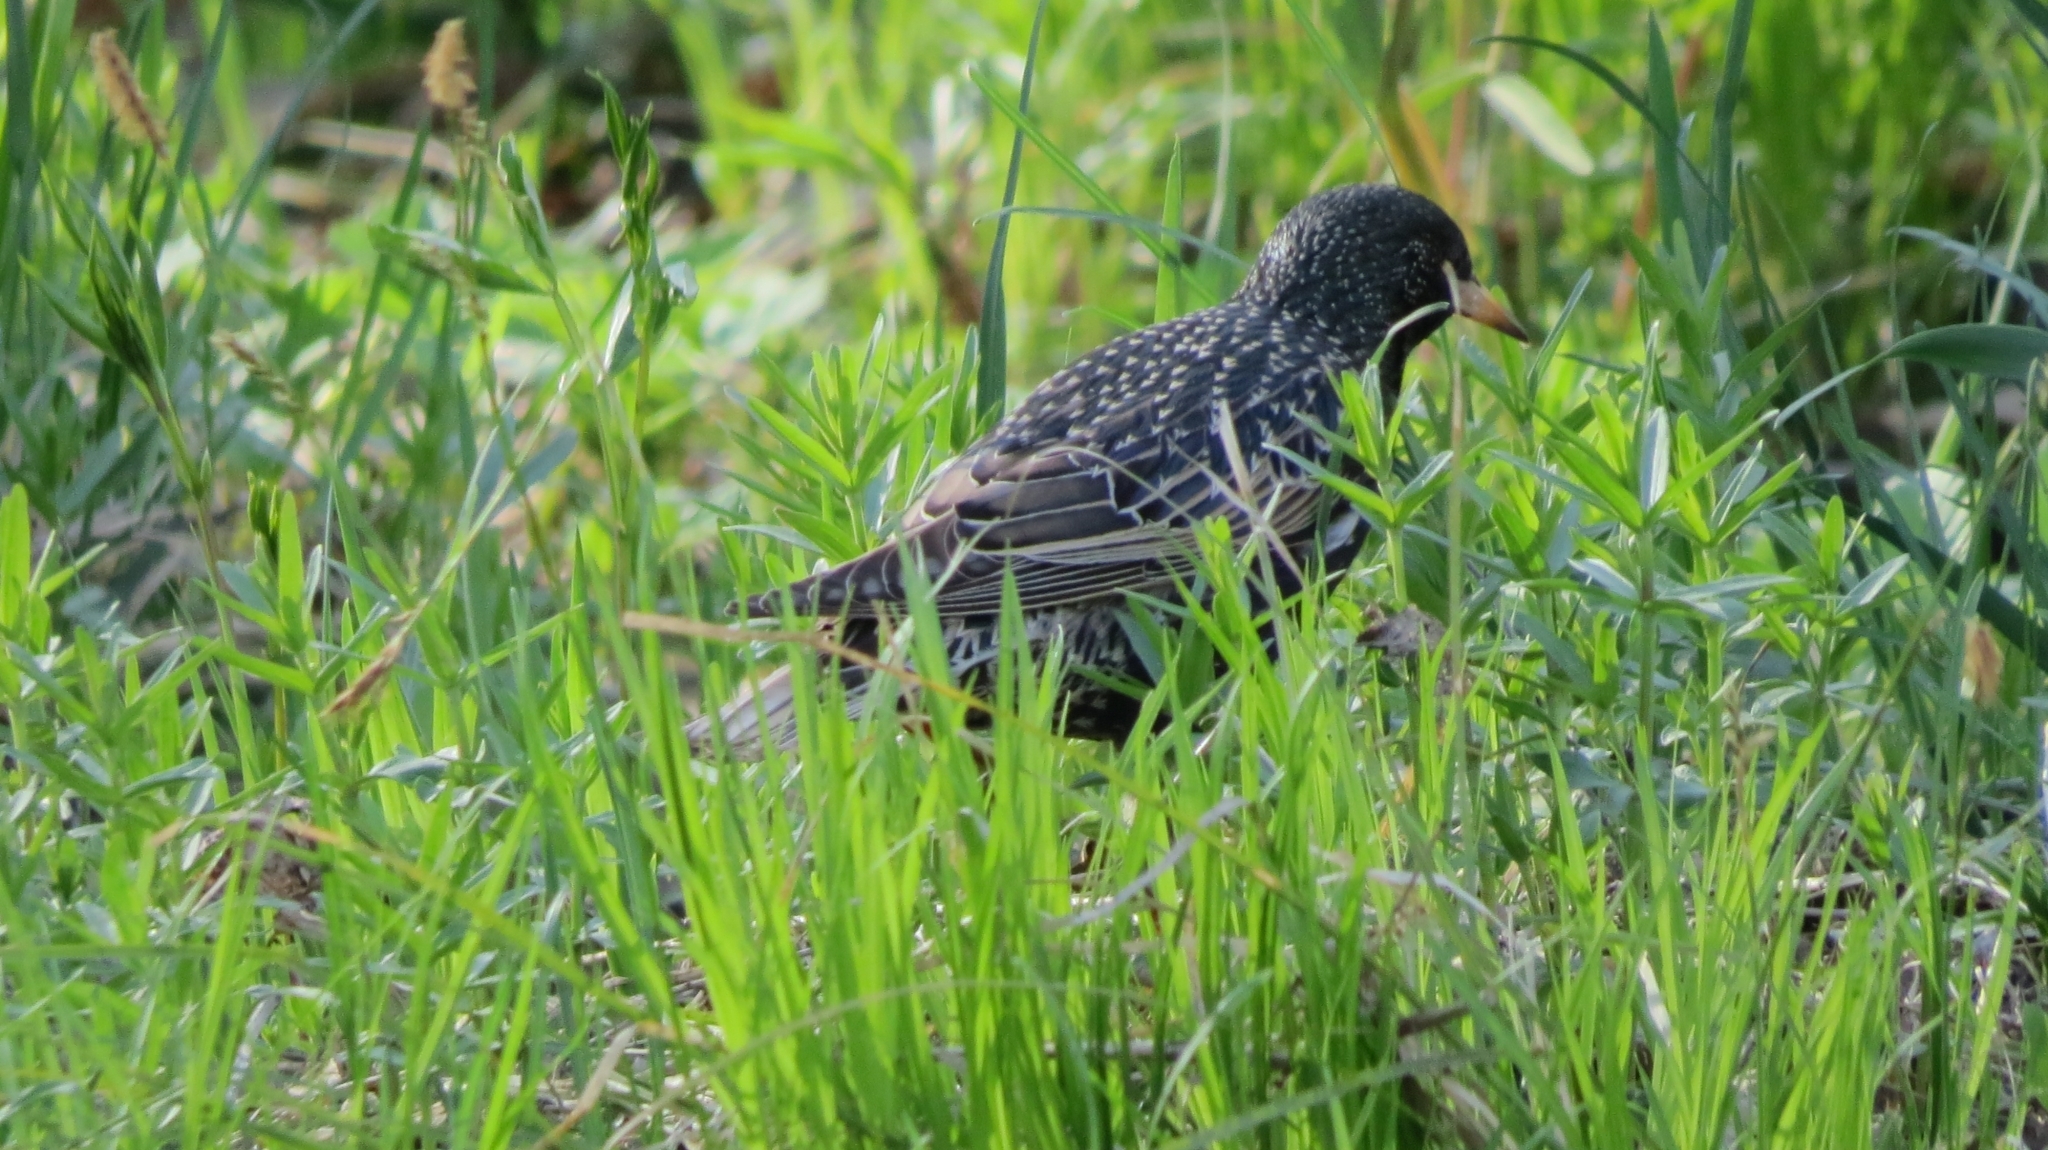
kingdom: Animalia
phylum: Chordata
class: Aves
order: Passeriformes
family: Sturnidae
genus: Sturnus
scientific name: Sturnus vulgaris
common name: Common starling
